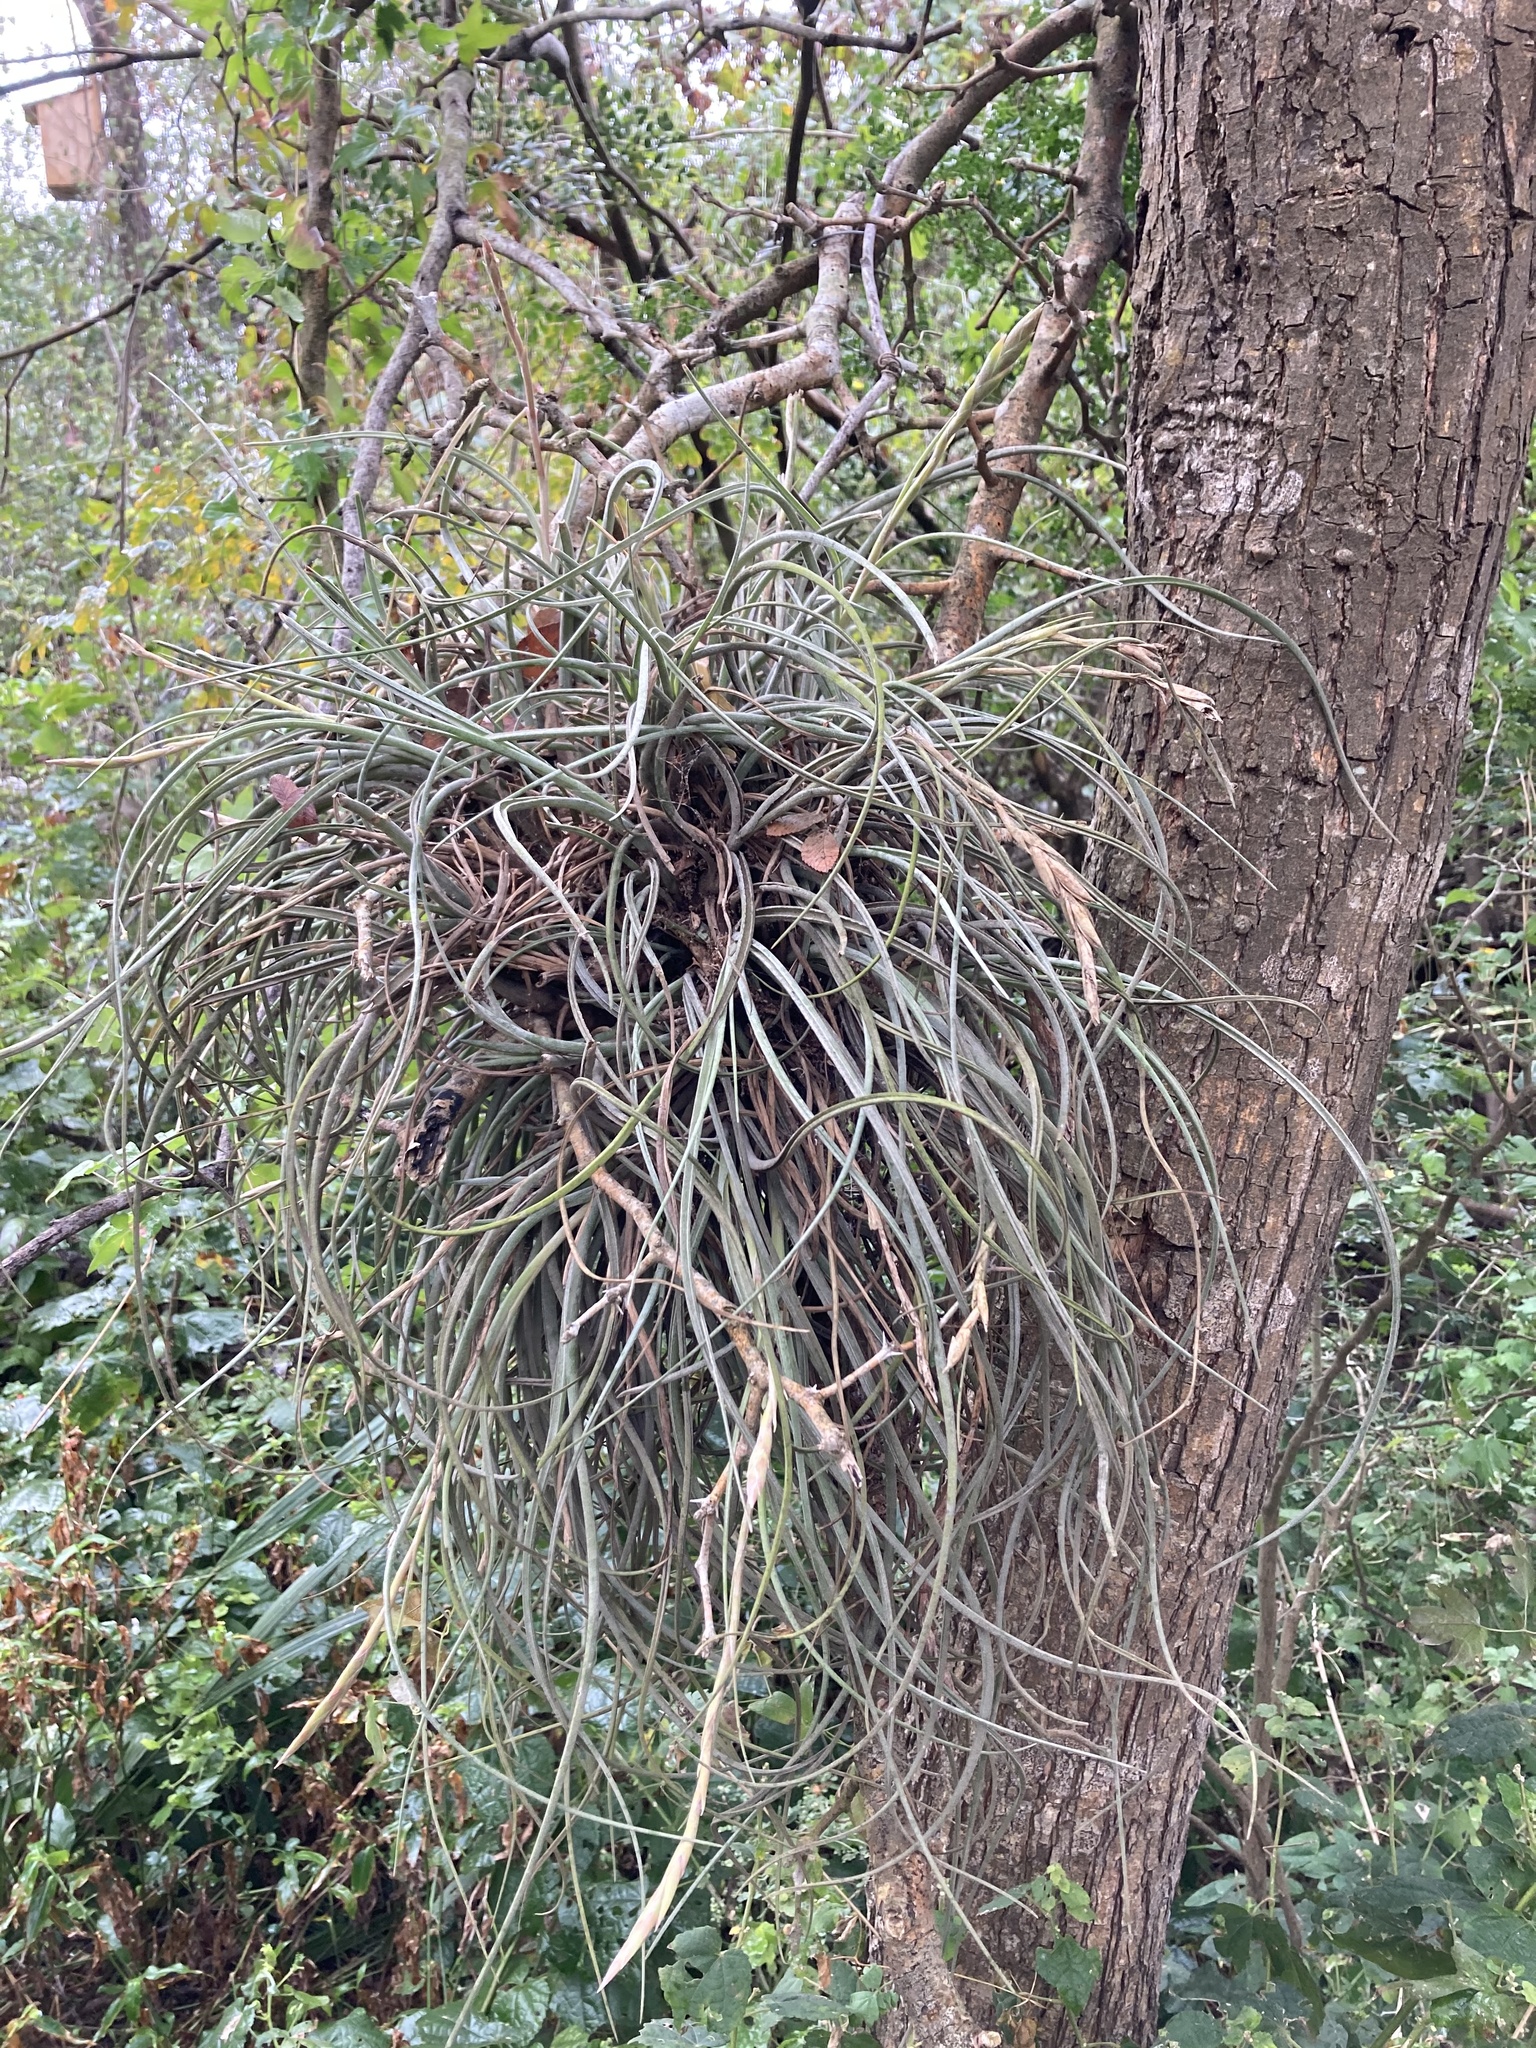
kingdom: Plantae
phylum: Tracheophyta
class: Liliopsida
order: Poales
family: Bromeliaceae
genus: Tillandsia
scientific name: Tillandsia baileyi
